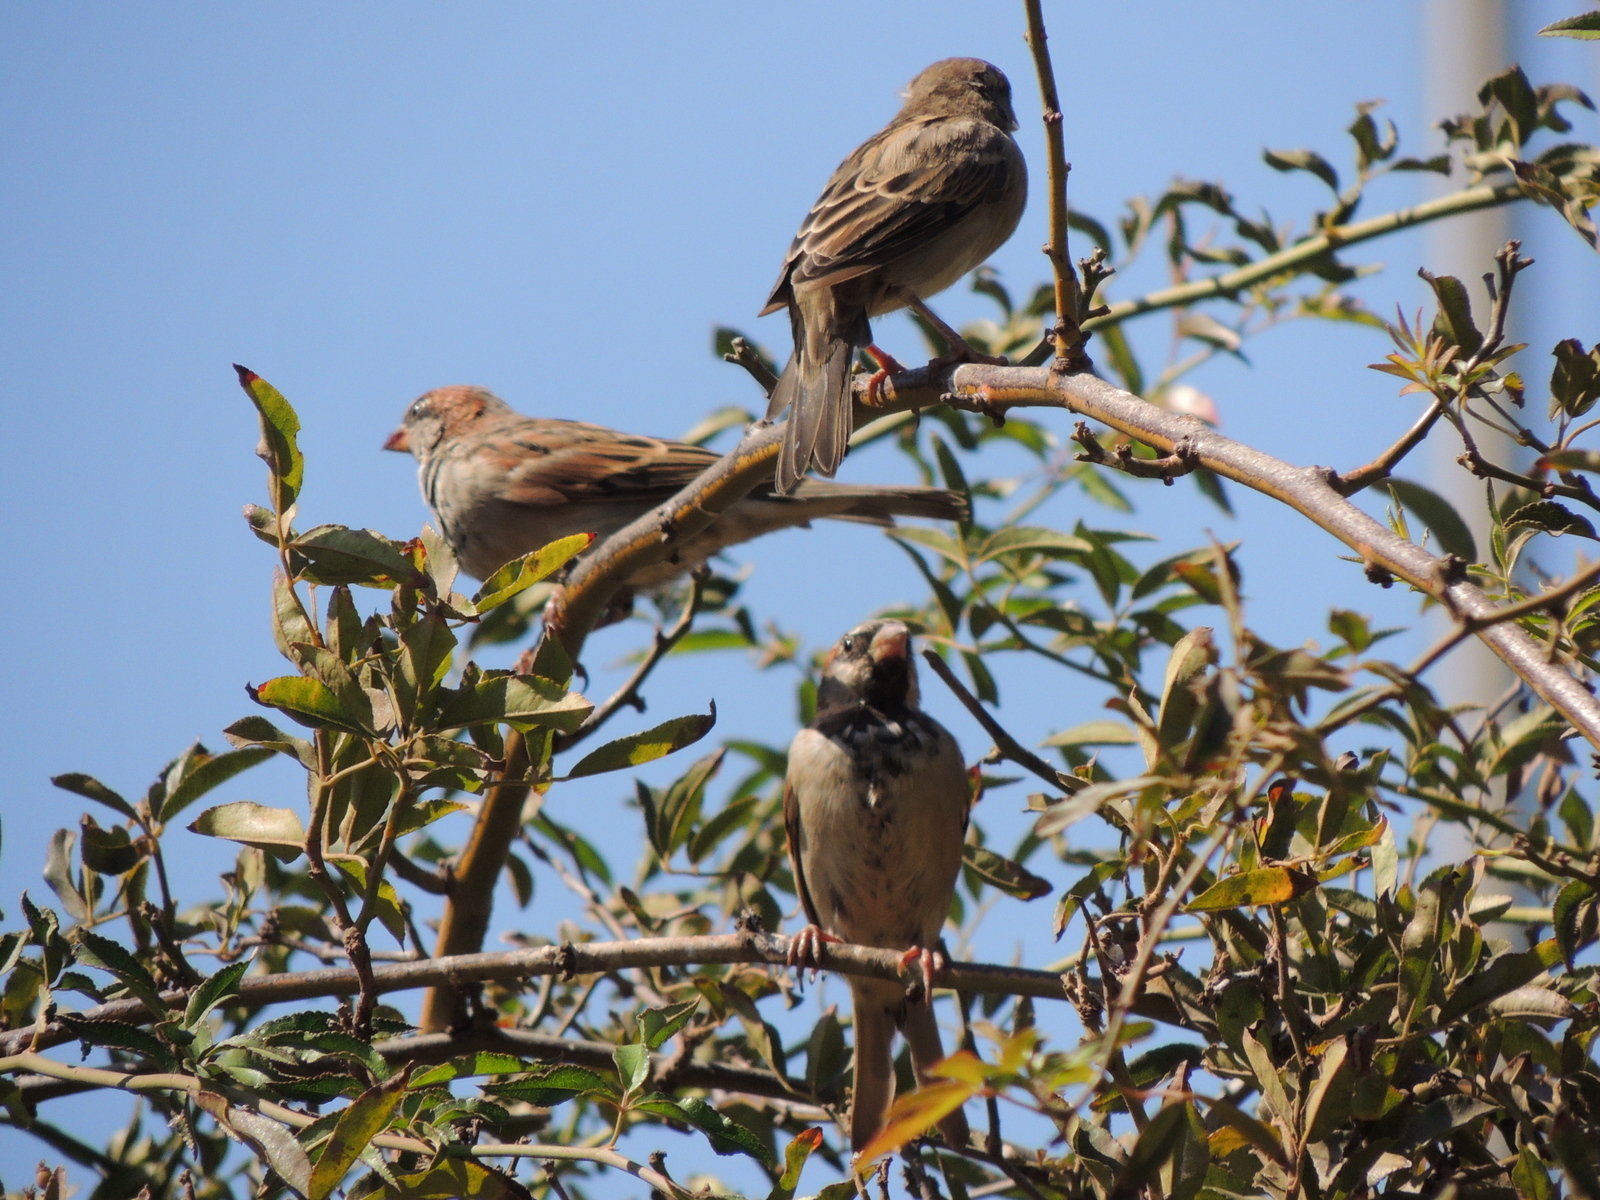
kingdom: Animalia
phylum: Chordata
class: Aves
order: Passeriformes
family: Passeridae
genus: Passer
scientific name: Passer domesticus
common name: House sparrow
